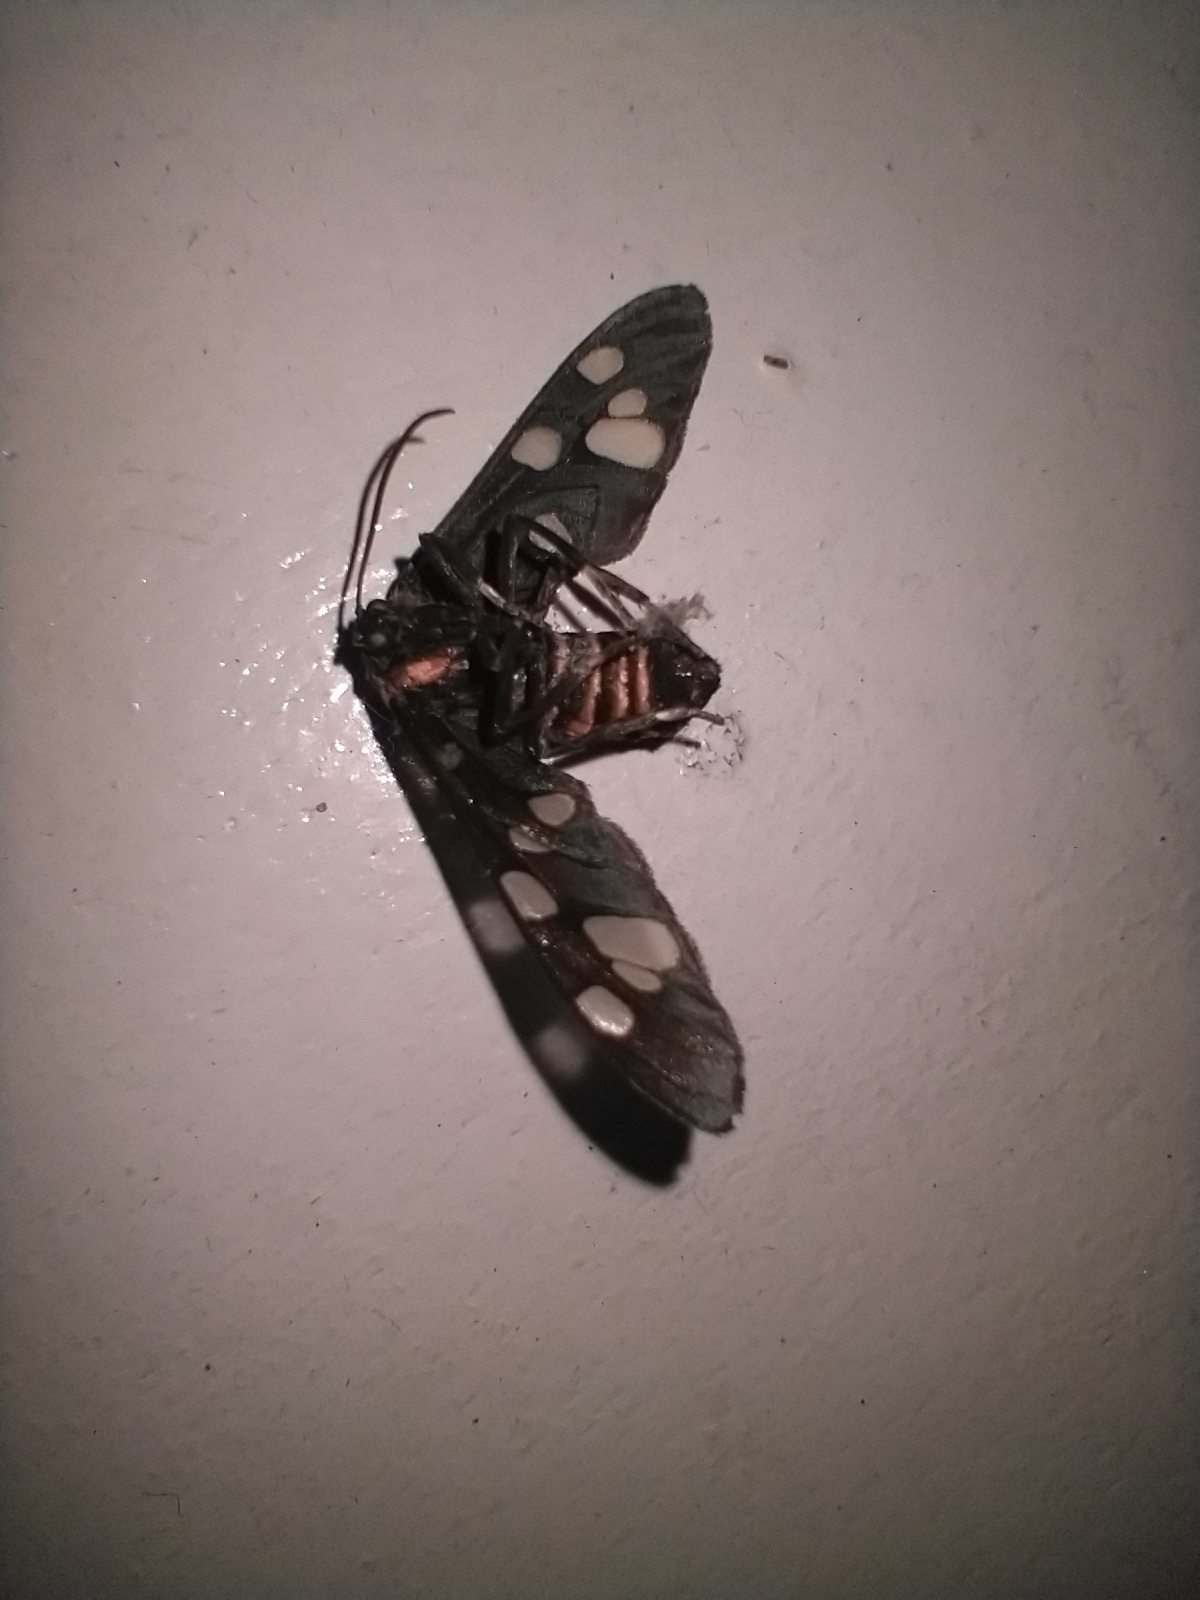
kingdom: Animalia
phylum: Arthropoda
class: Insecta
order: Lepidoptera
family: Erebidae
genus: Amata
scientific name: Amata passalis
